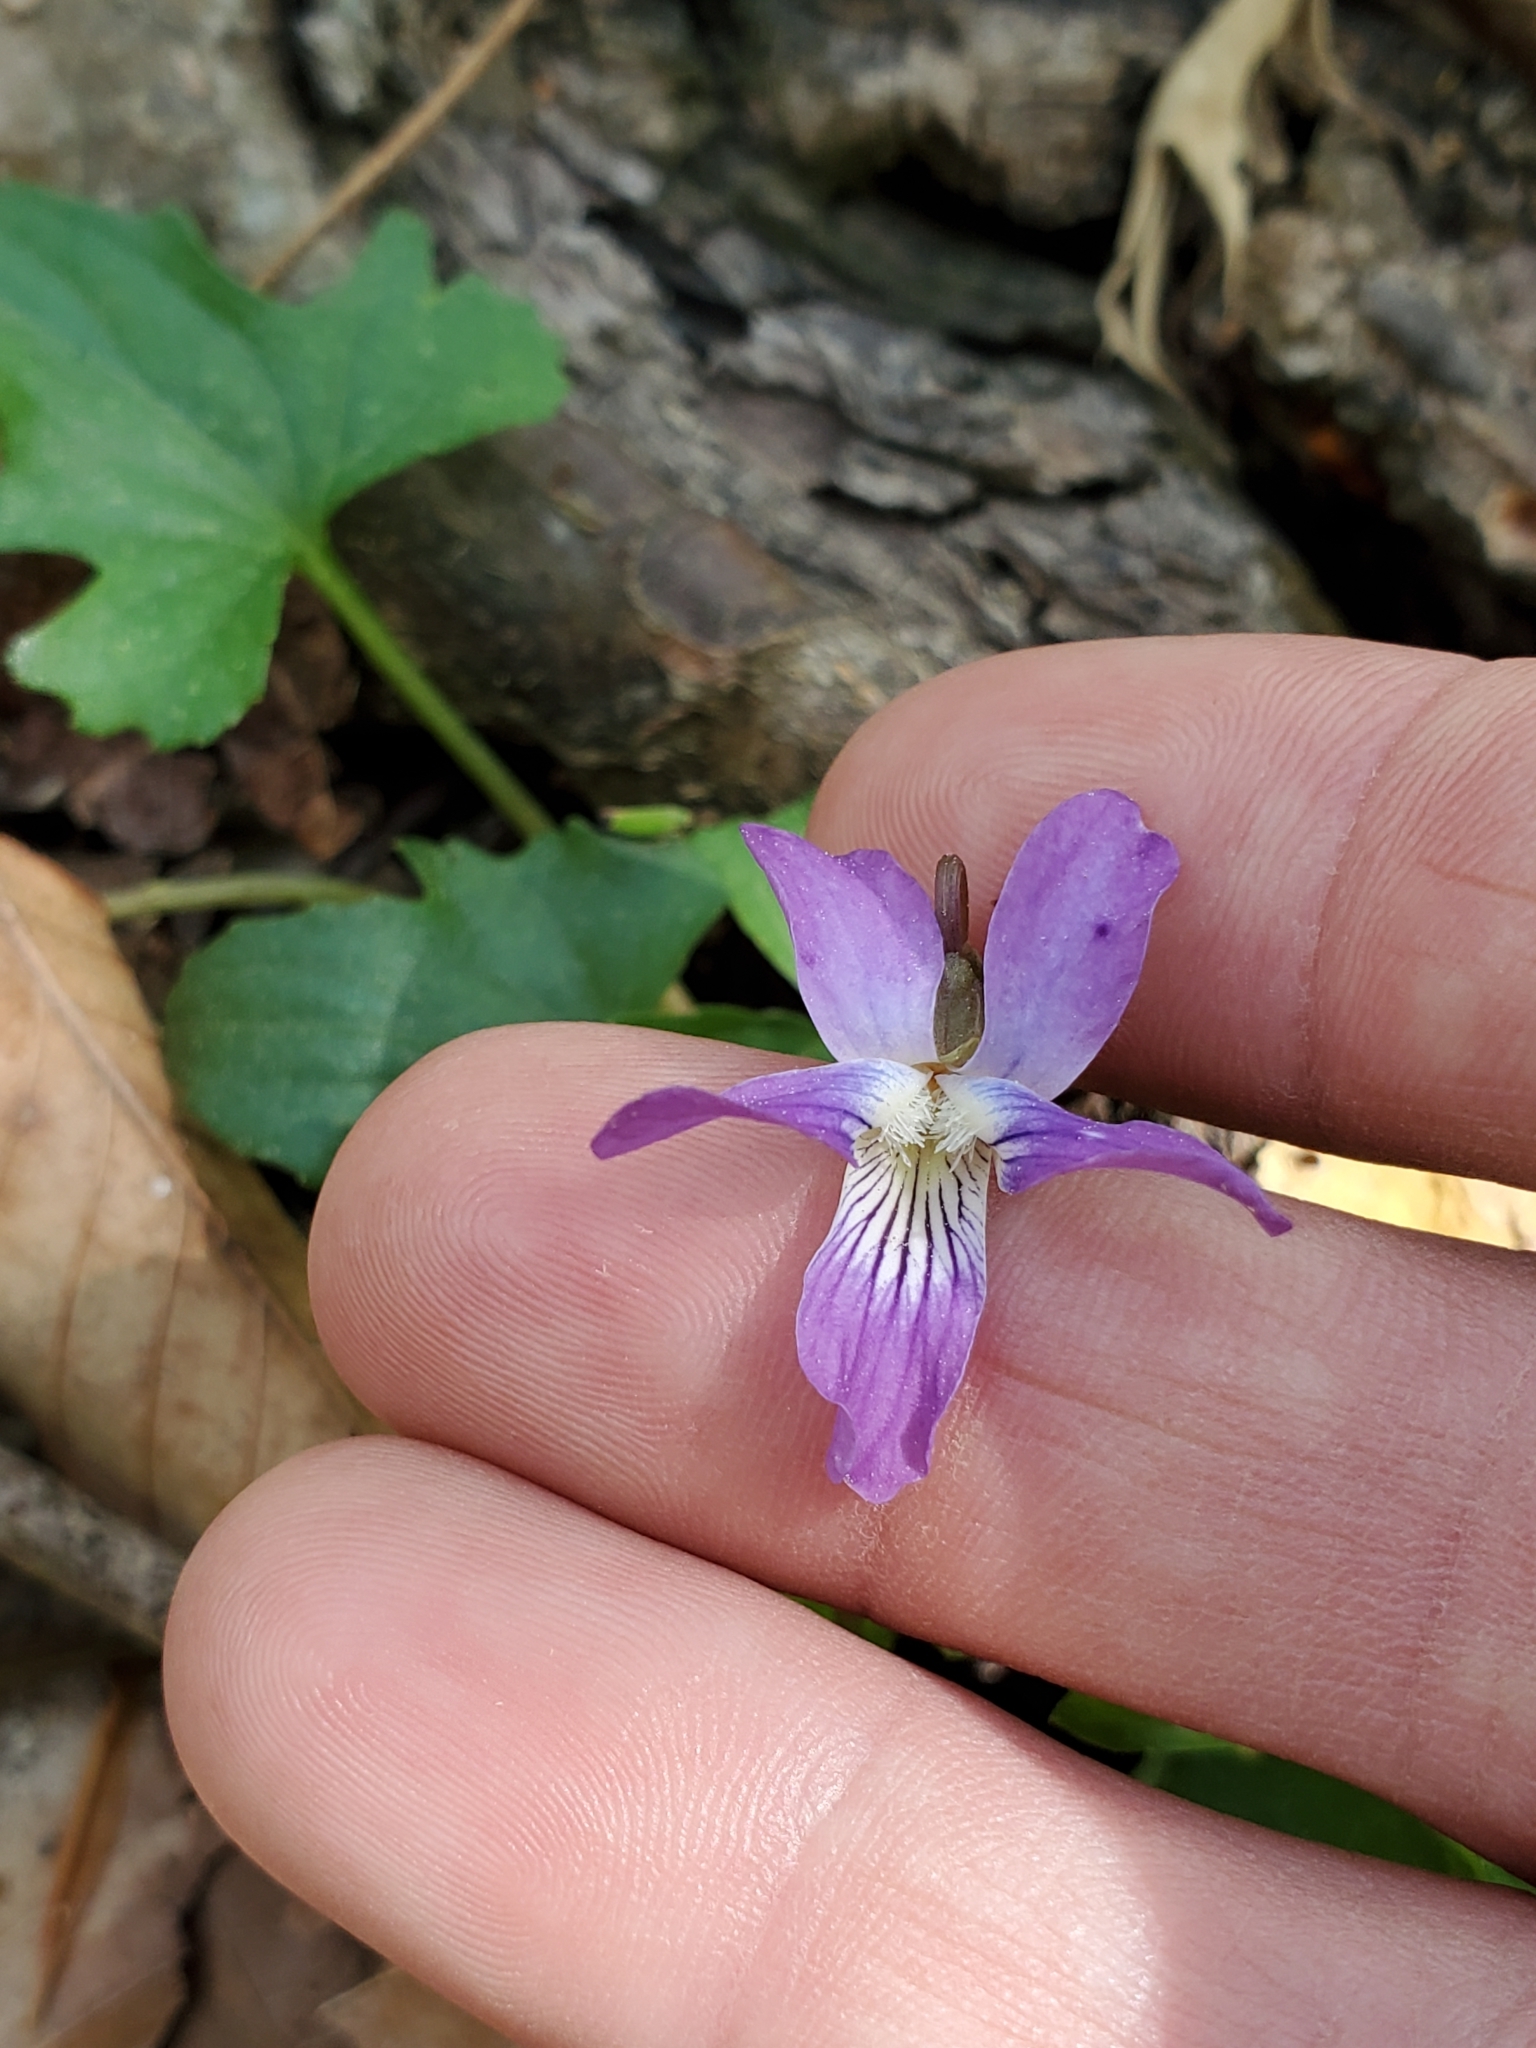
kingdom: Plantae
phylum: Tracheophyta
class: Magnoliopsida
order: Malpighiales
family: Violaceae
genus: Viola
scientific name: Viola sagittata
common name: Arrowhead violet
